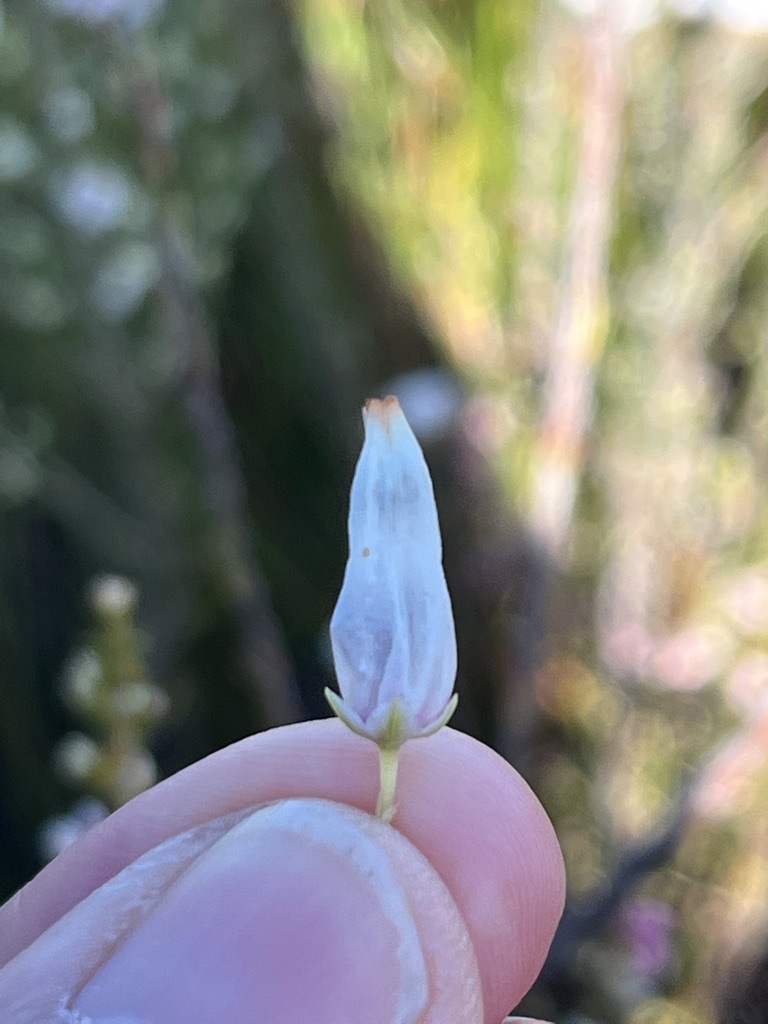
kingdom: Plantae
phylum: Tracheophyta
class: Magnoliopsida
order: Ericales
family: Ericaceae
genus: Erica
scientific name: Erica penduliflora
